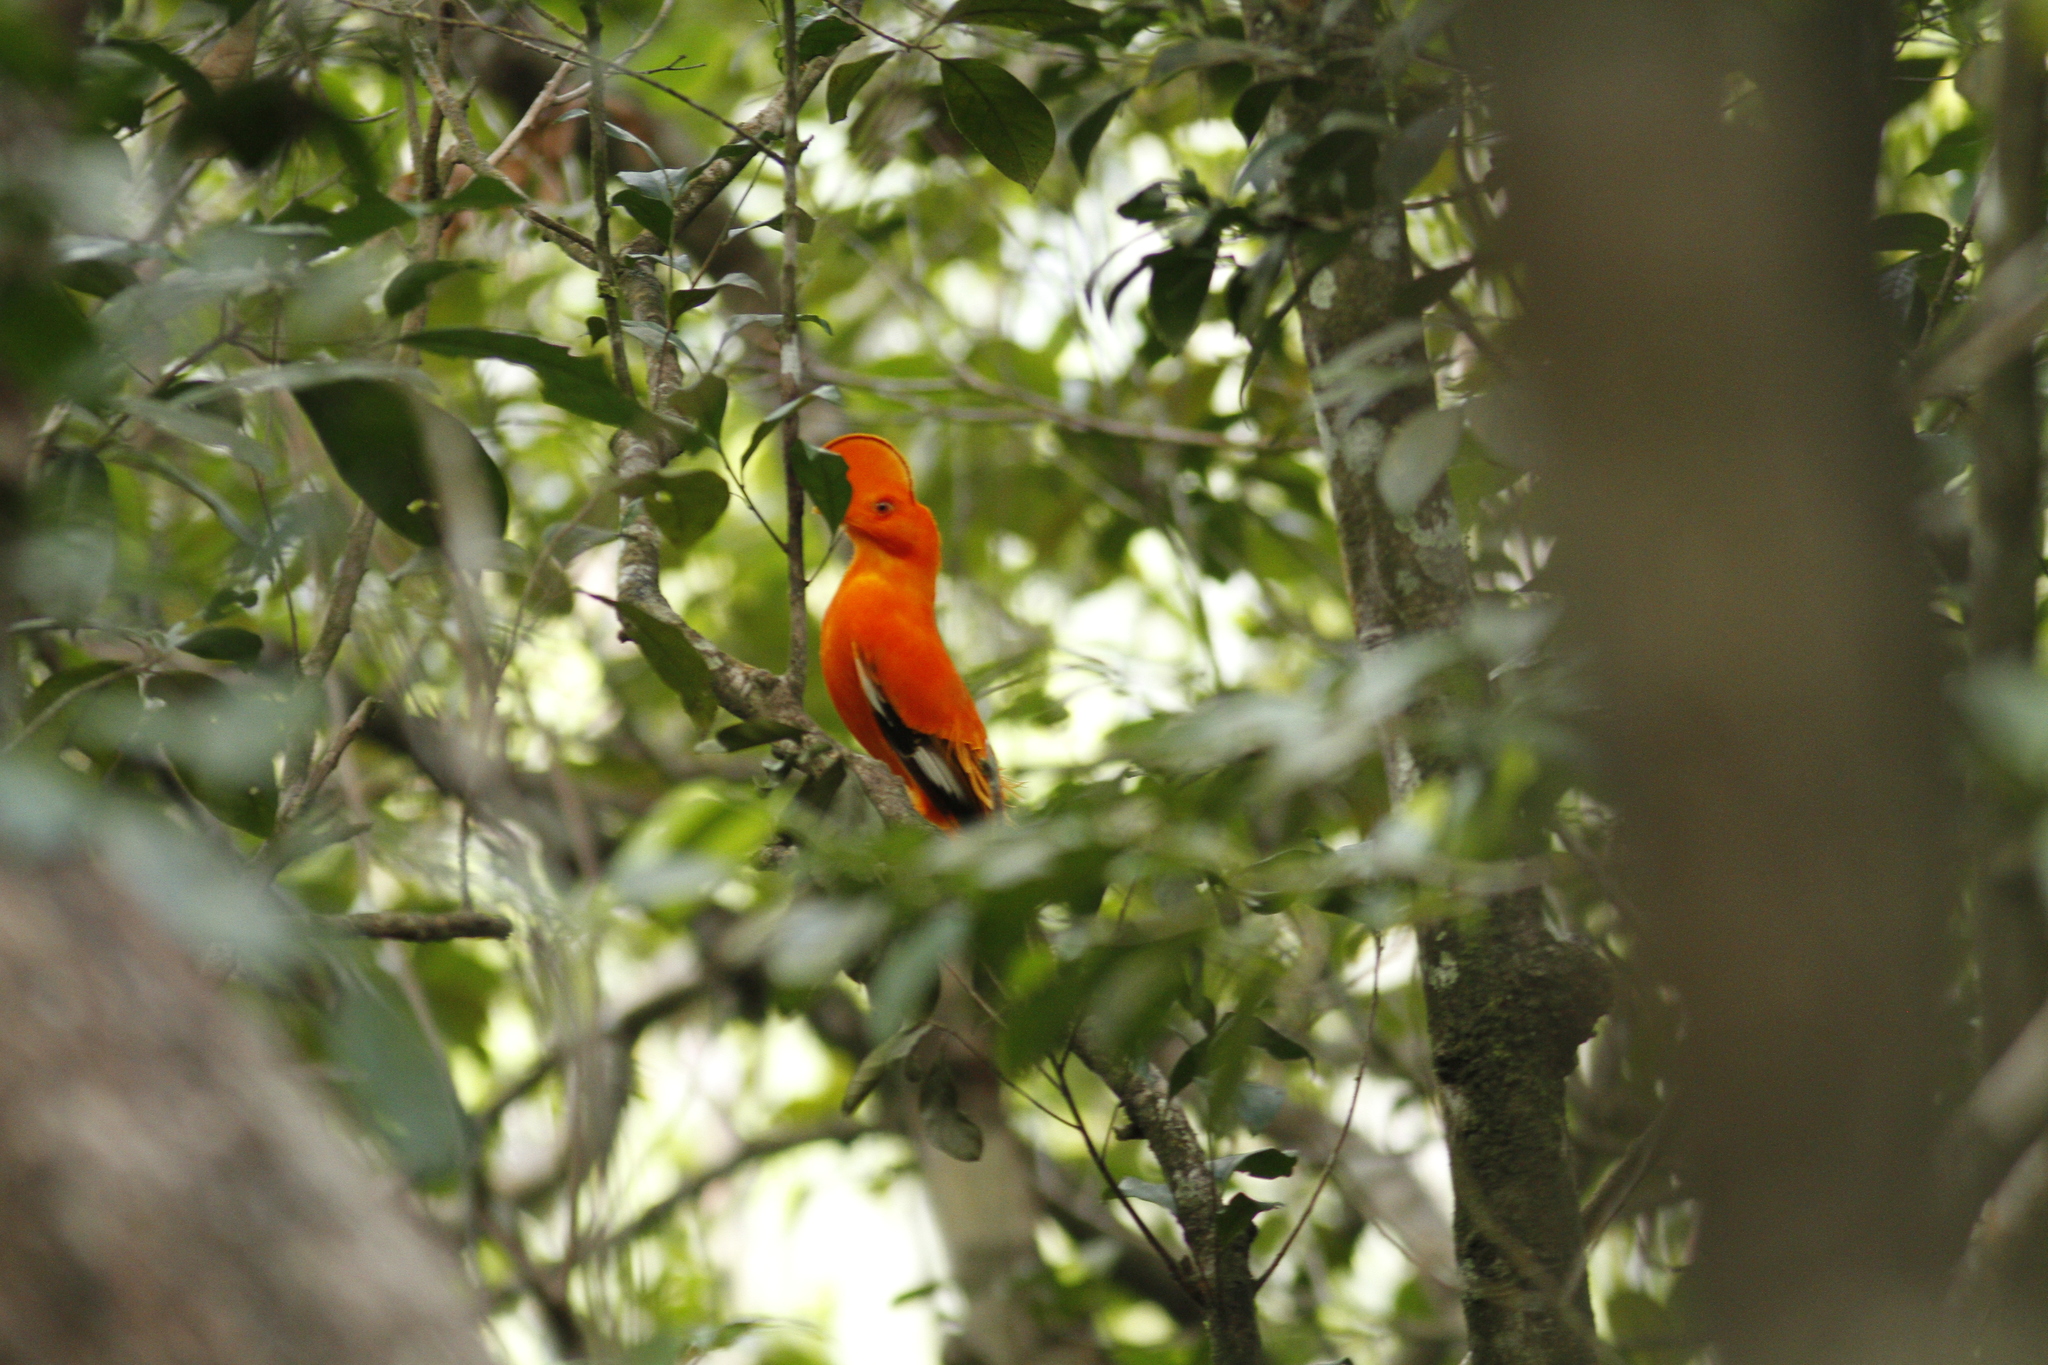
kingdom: Animalia
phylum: Chordata
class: Aves
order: Passeriformes
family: Cotingidae
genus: Rupicola
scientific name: Rupicola rupicola
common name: Guianan cock-of-the-rock
